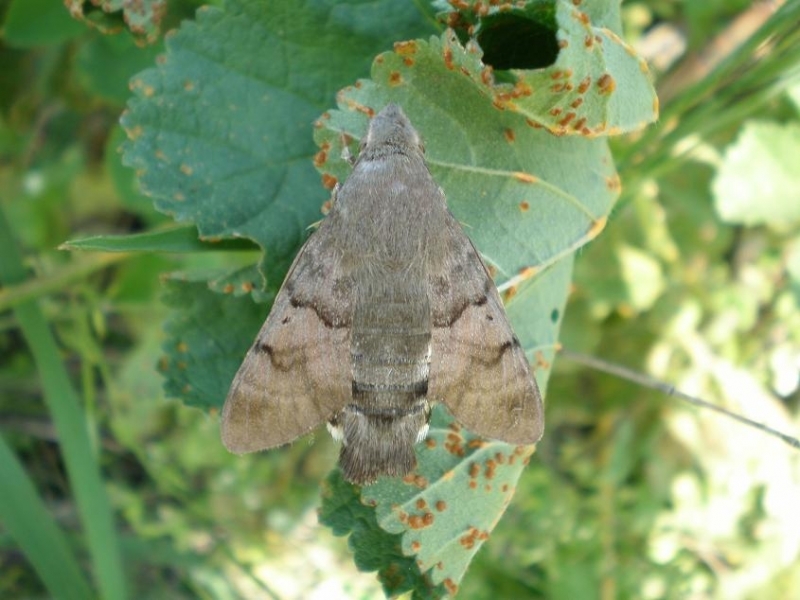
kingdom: Animalia
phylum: Arthropoda
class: Insecta
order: Lepidoptera
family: Sphingidae
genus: Macroglossum
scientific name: Macroglossum stellatarum
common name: Humming-bird hawk-moth
